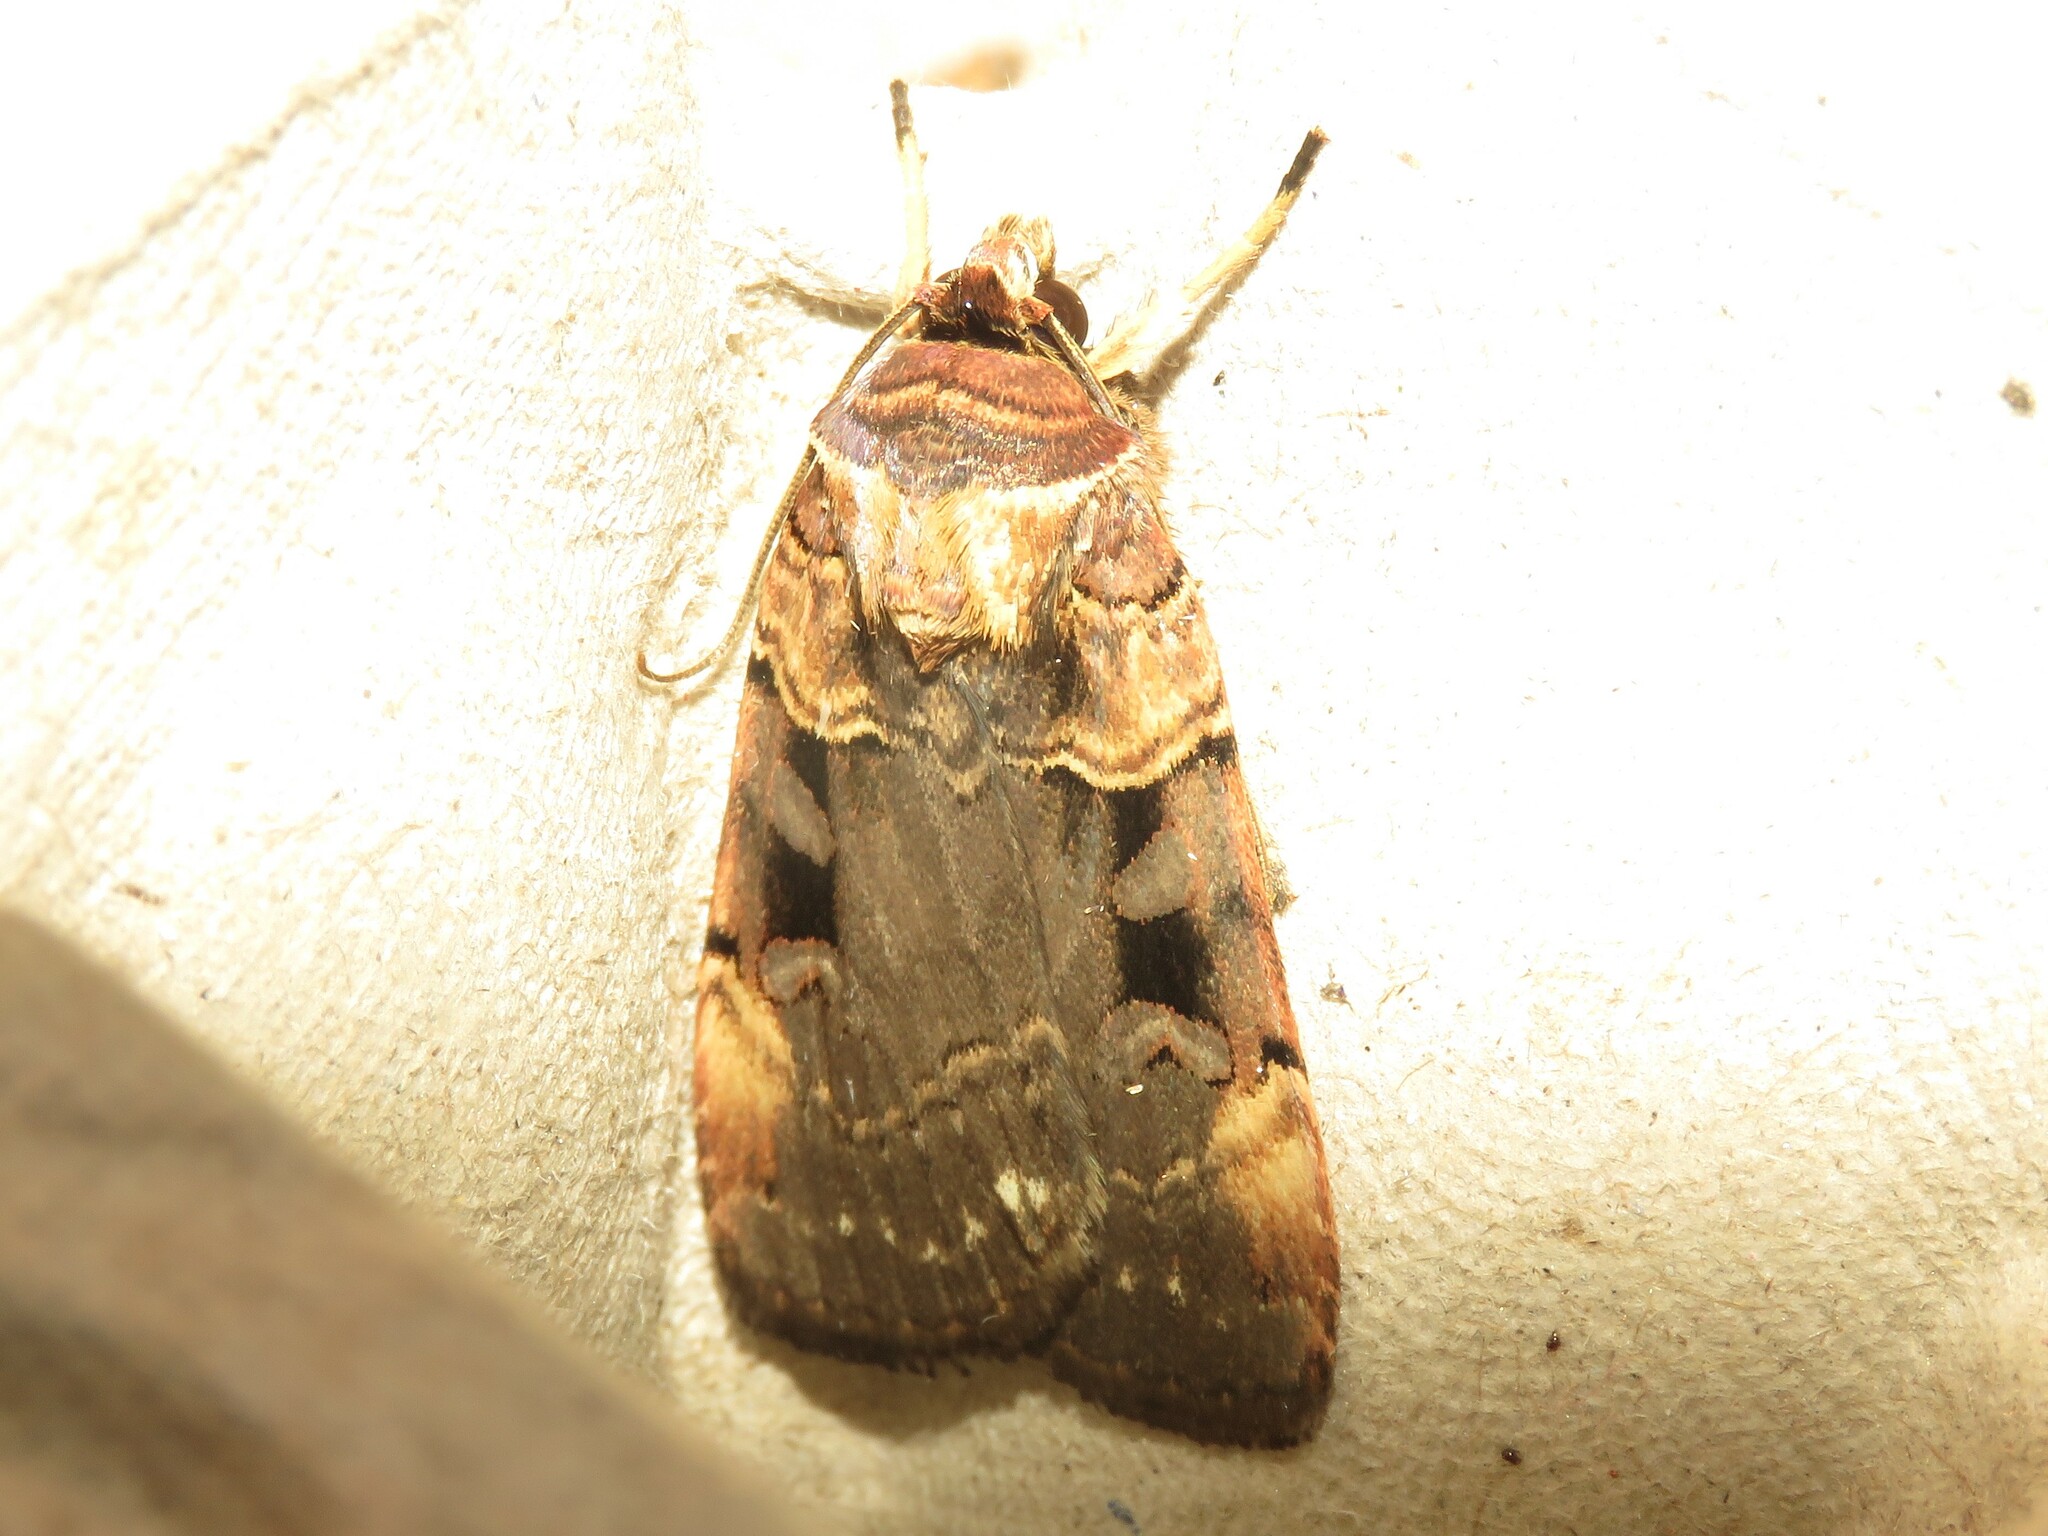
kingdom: Animalia
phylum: Arthropoda
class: Insecta
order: Lepidoptera
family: Noctuidae
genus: Pseudohermonassa
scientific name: Pseudohermonassa bicarnea
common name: Pink spotted dart
